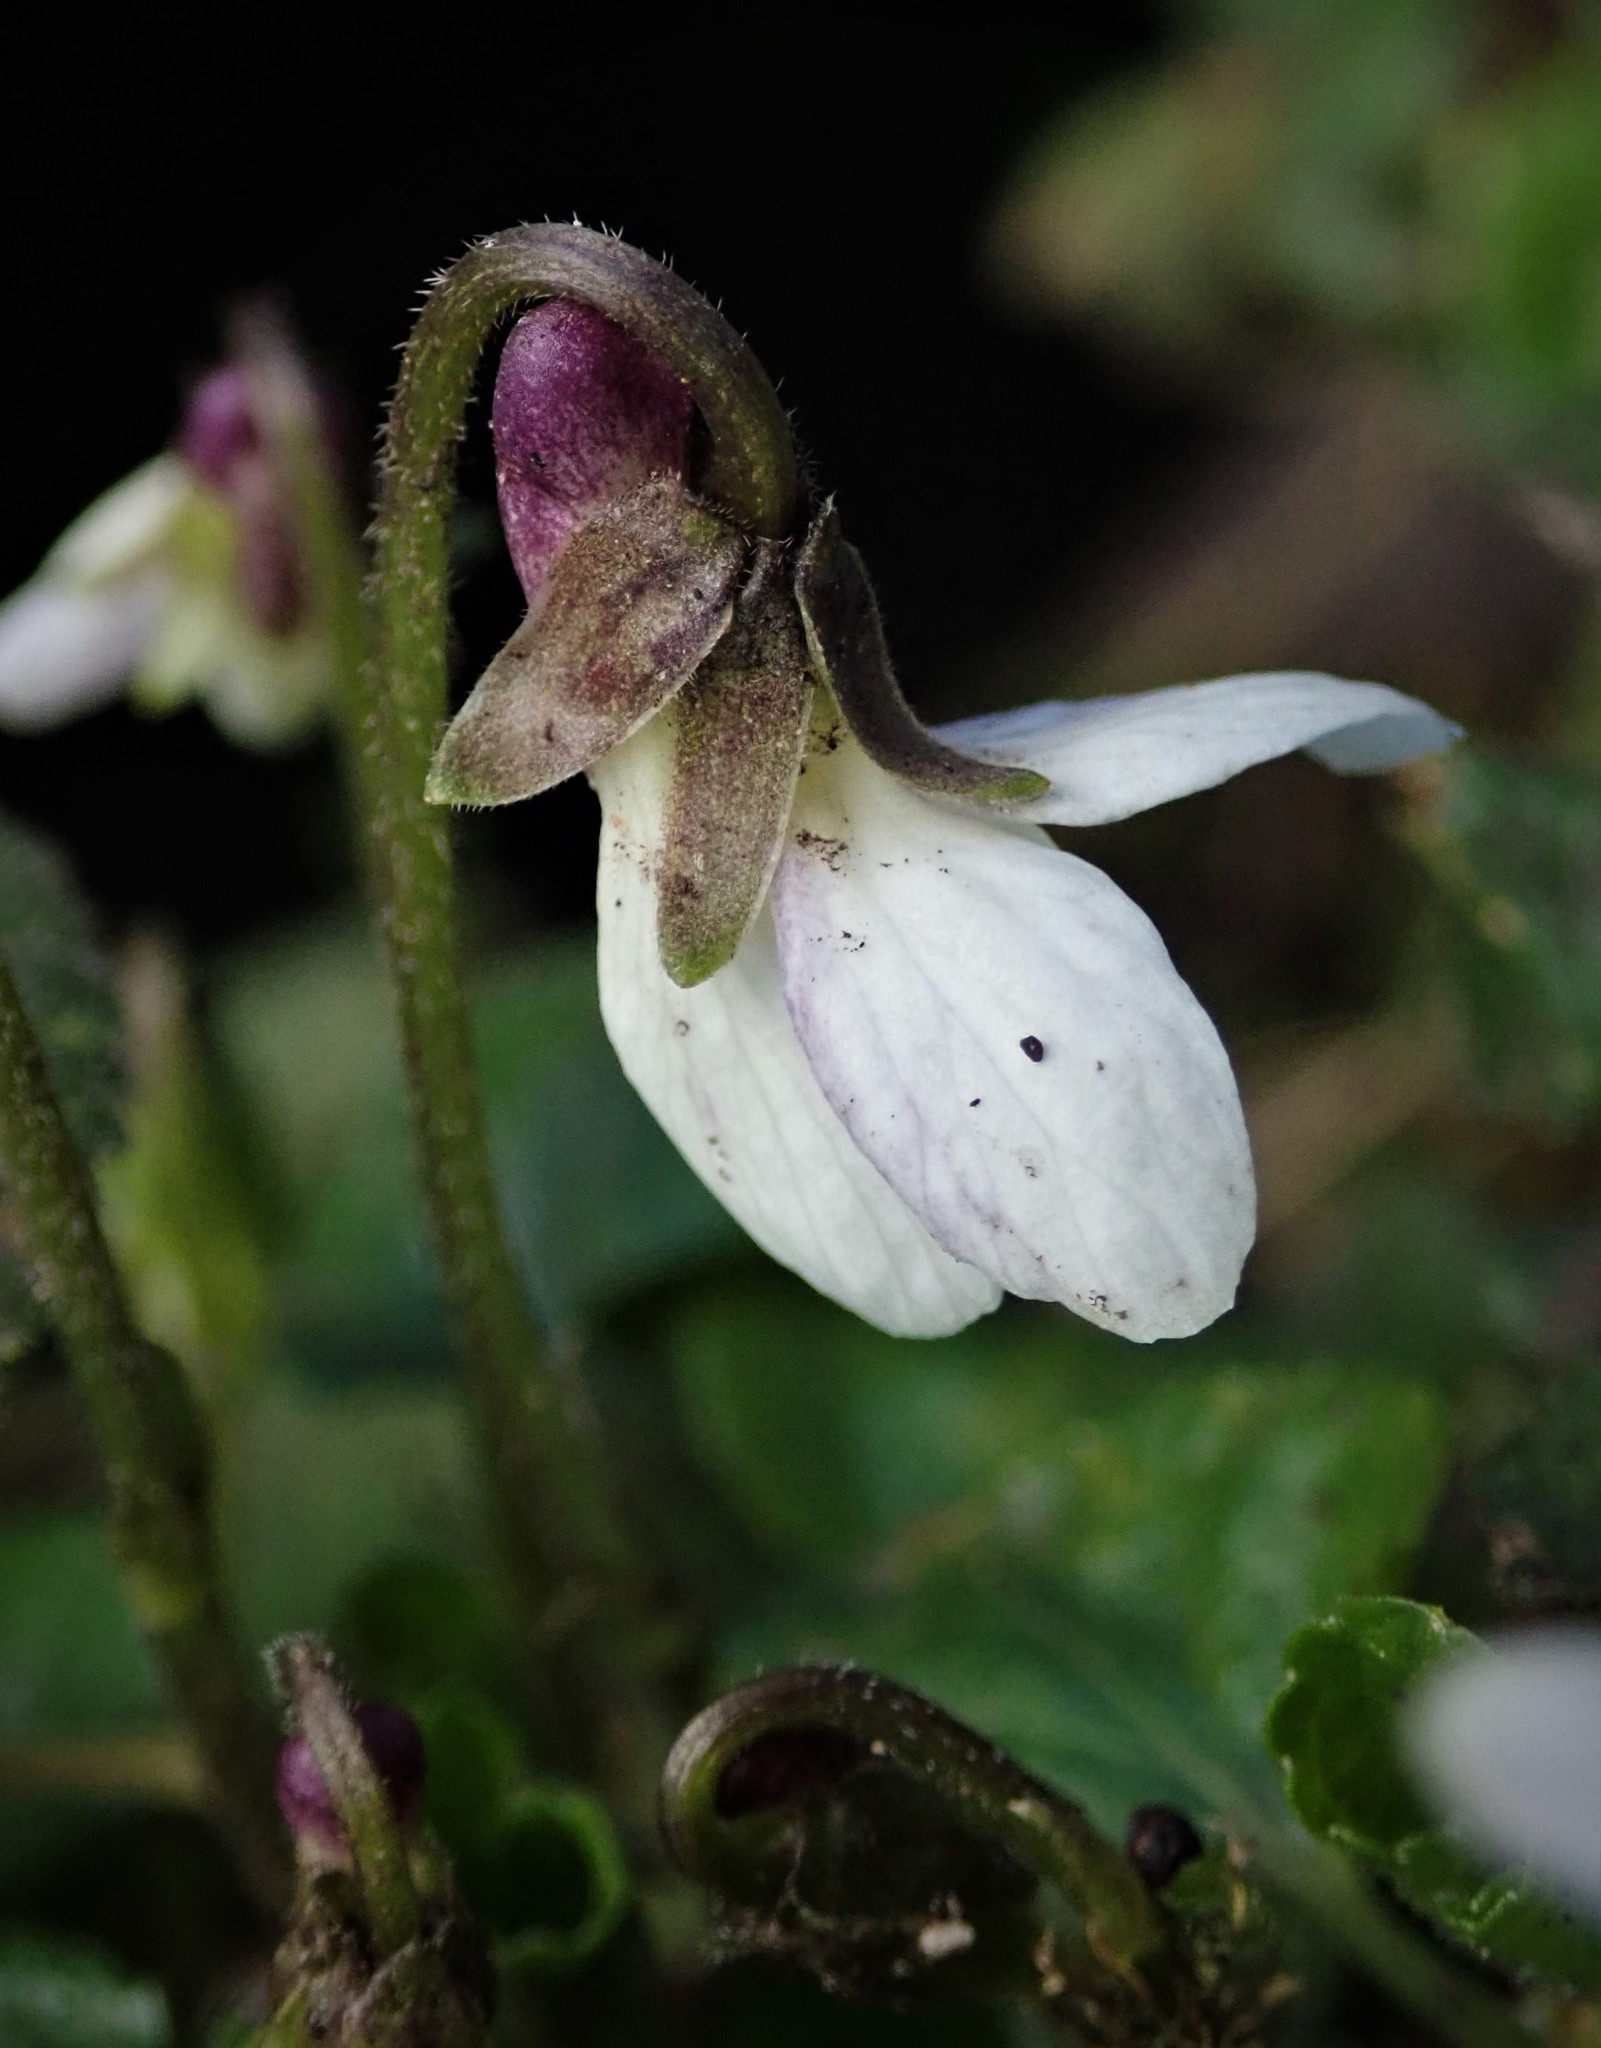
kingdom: Plantae
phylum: Tracheophyta
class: Magnoliopsida
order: Malpighiales
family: Violaceae
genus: Viola
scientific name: Viola odorata
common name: Sweet violet
